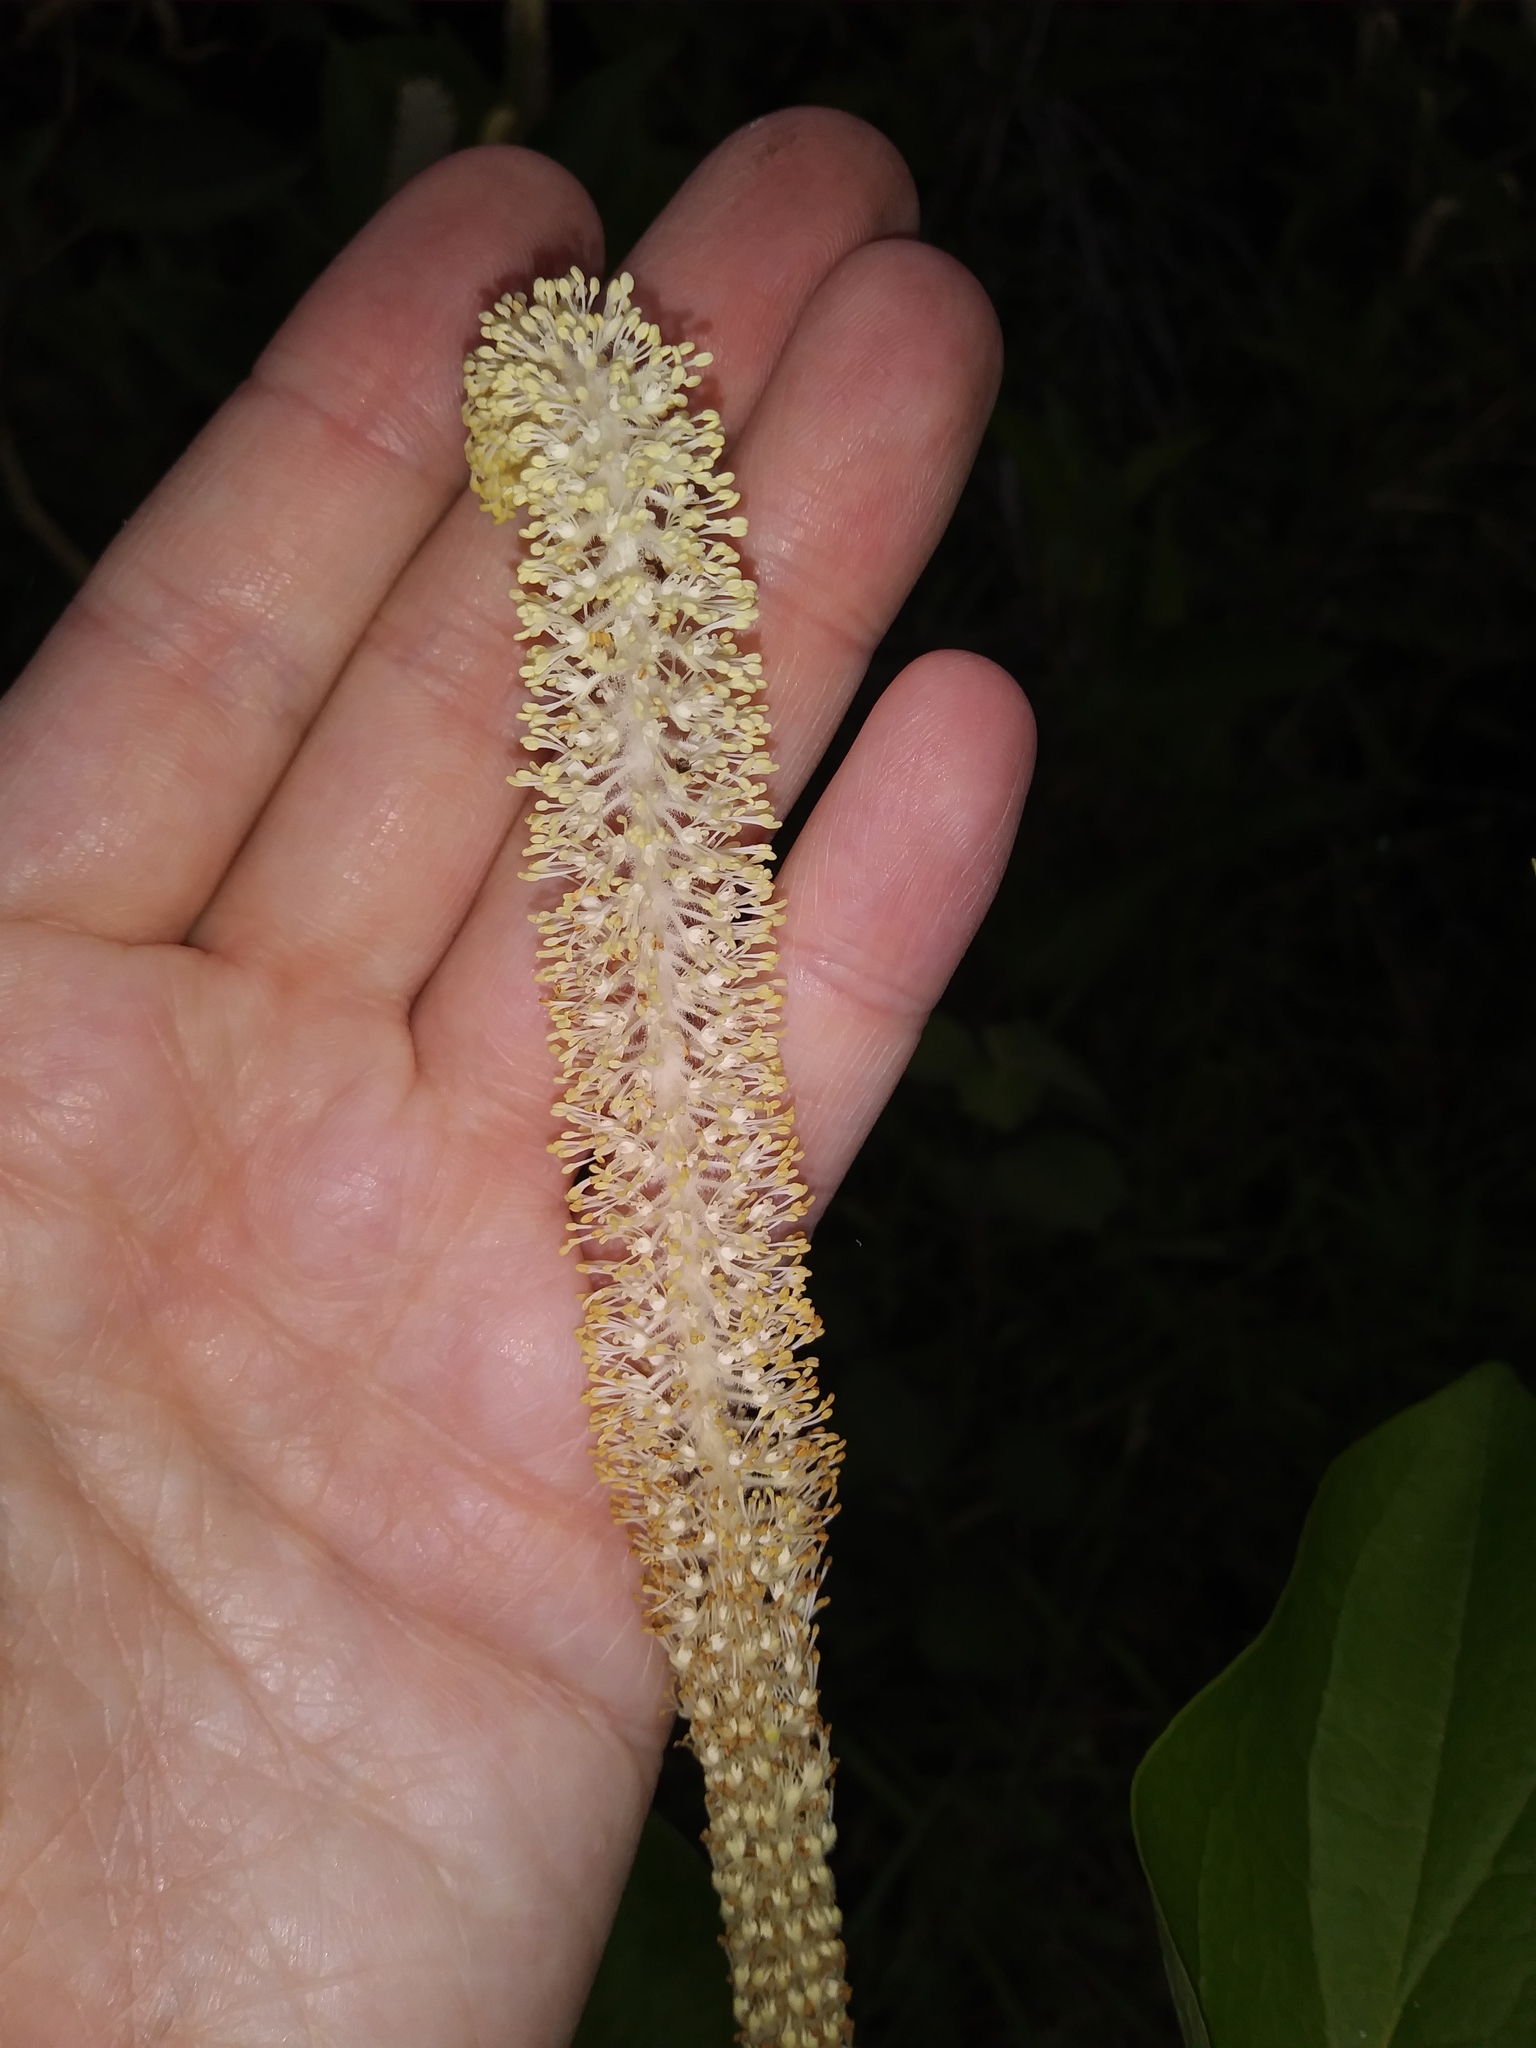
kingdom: Plantae
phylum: Tracheophyta
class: Magnoliopsida
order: Piperales
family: Saururaceae
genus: Saururus
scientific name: Saururus cernuus
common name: Lizard's-tail
